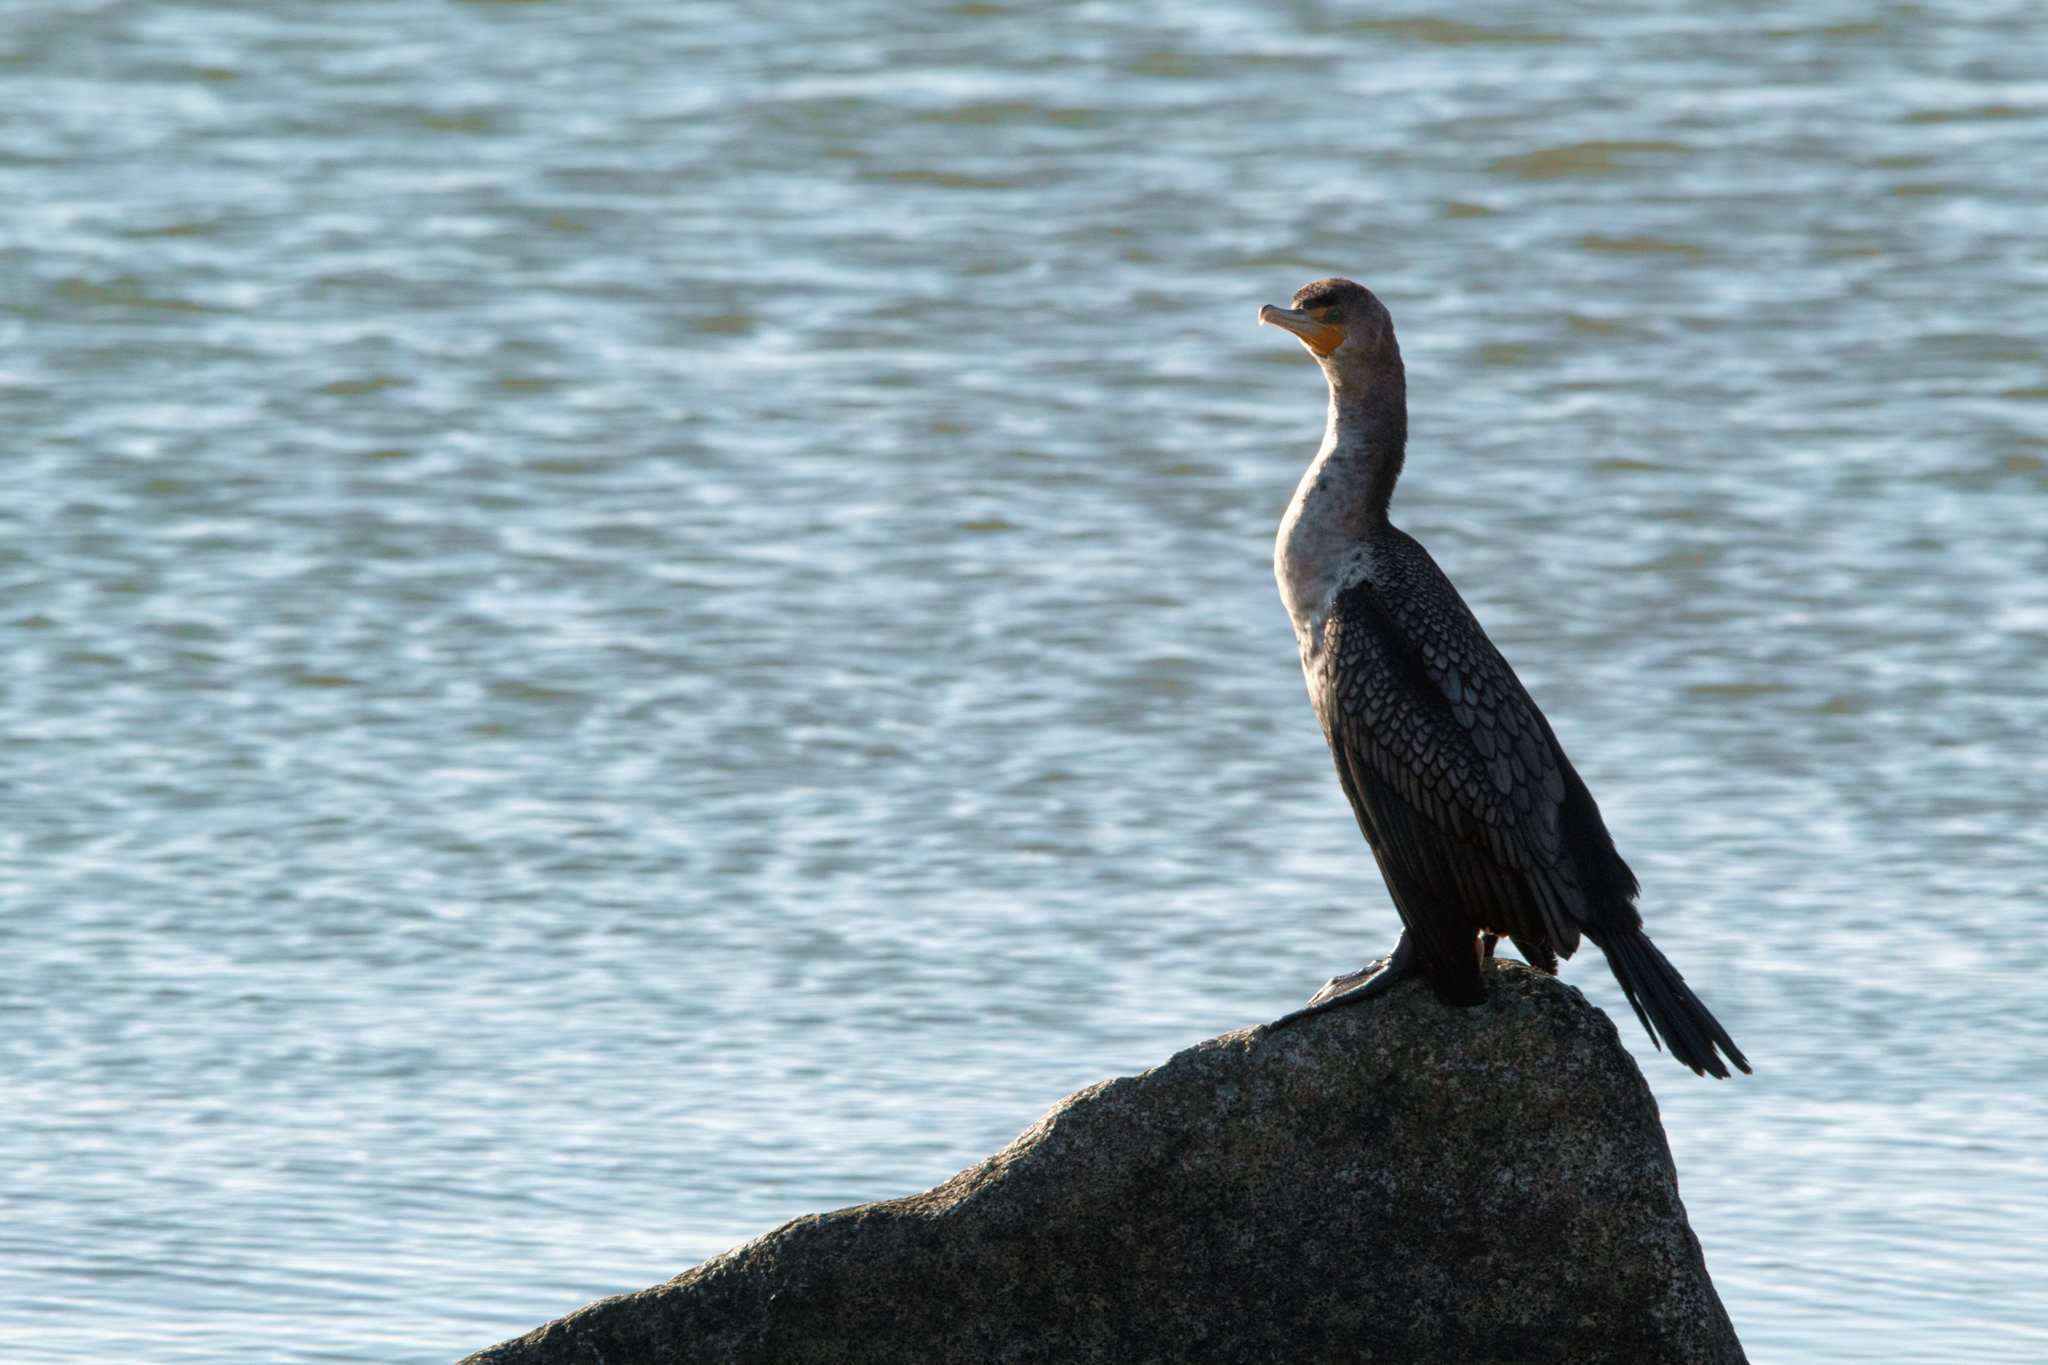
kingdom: Animalia
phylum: Chordata
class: Aves
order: Suliformes
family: Phalacrocoracidae
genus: Phalacrocorax
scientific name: Phalacrocorax auritus
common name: Double-crested cormorant
